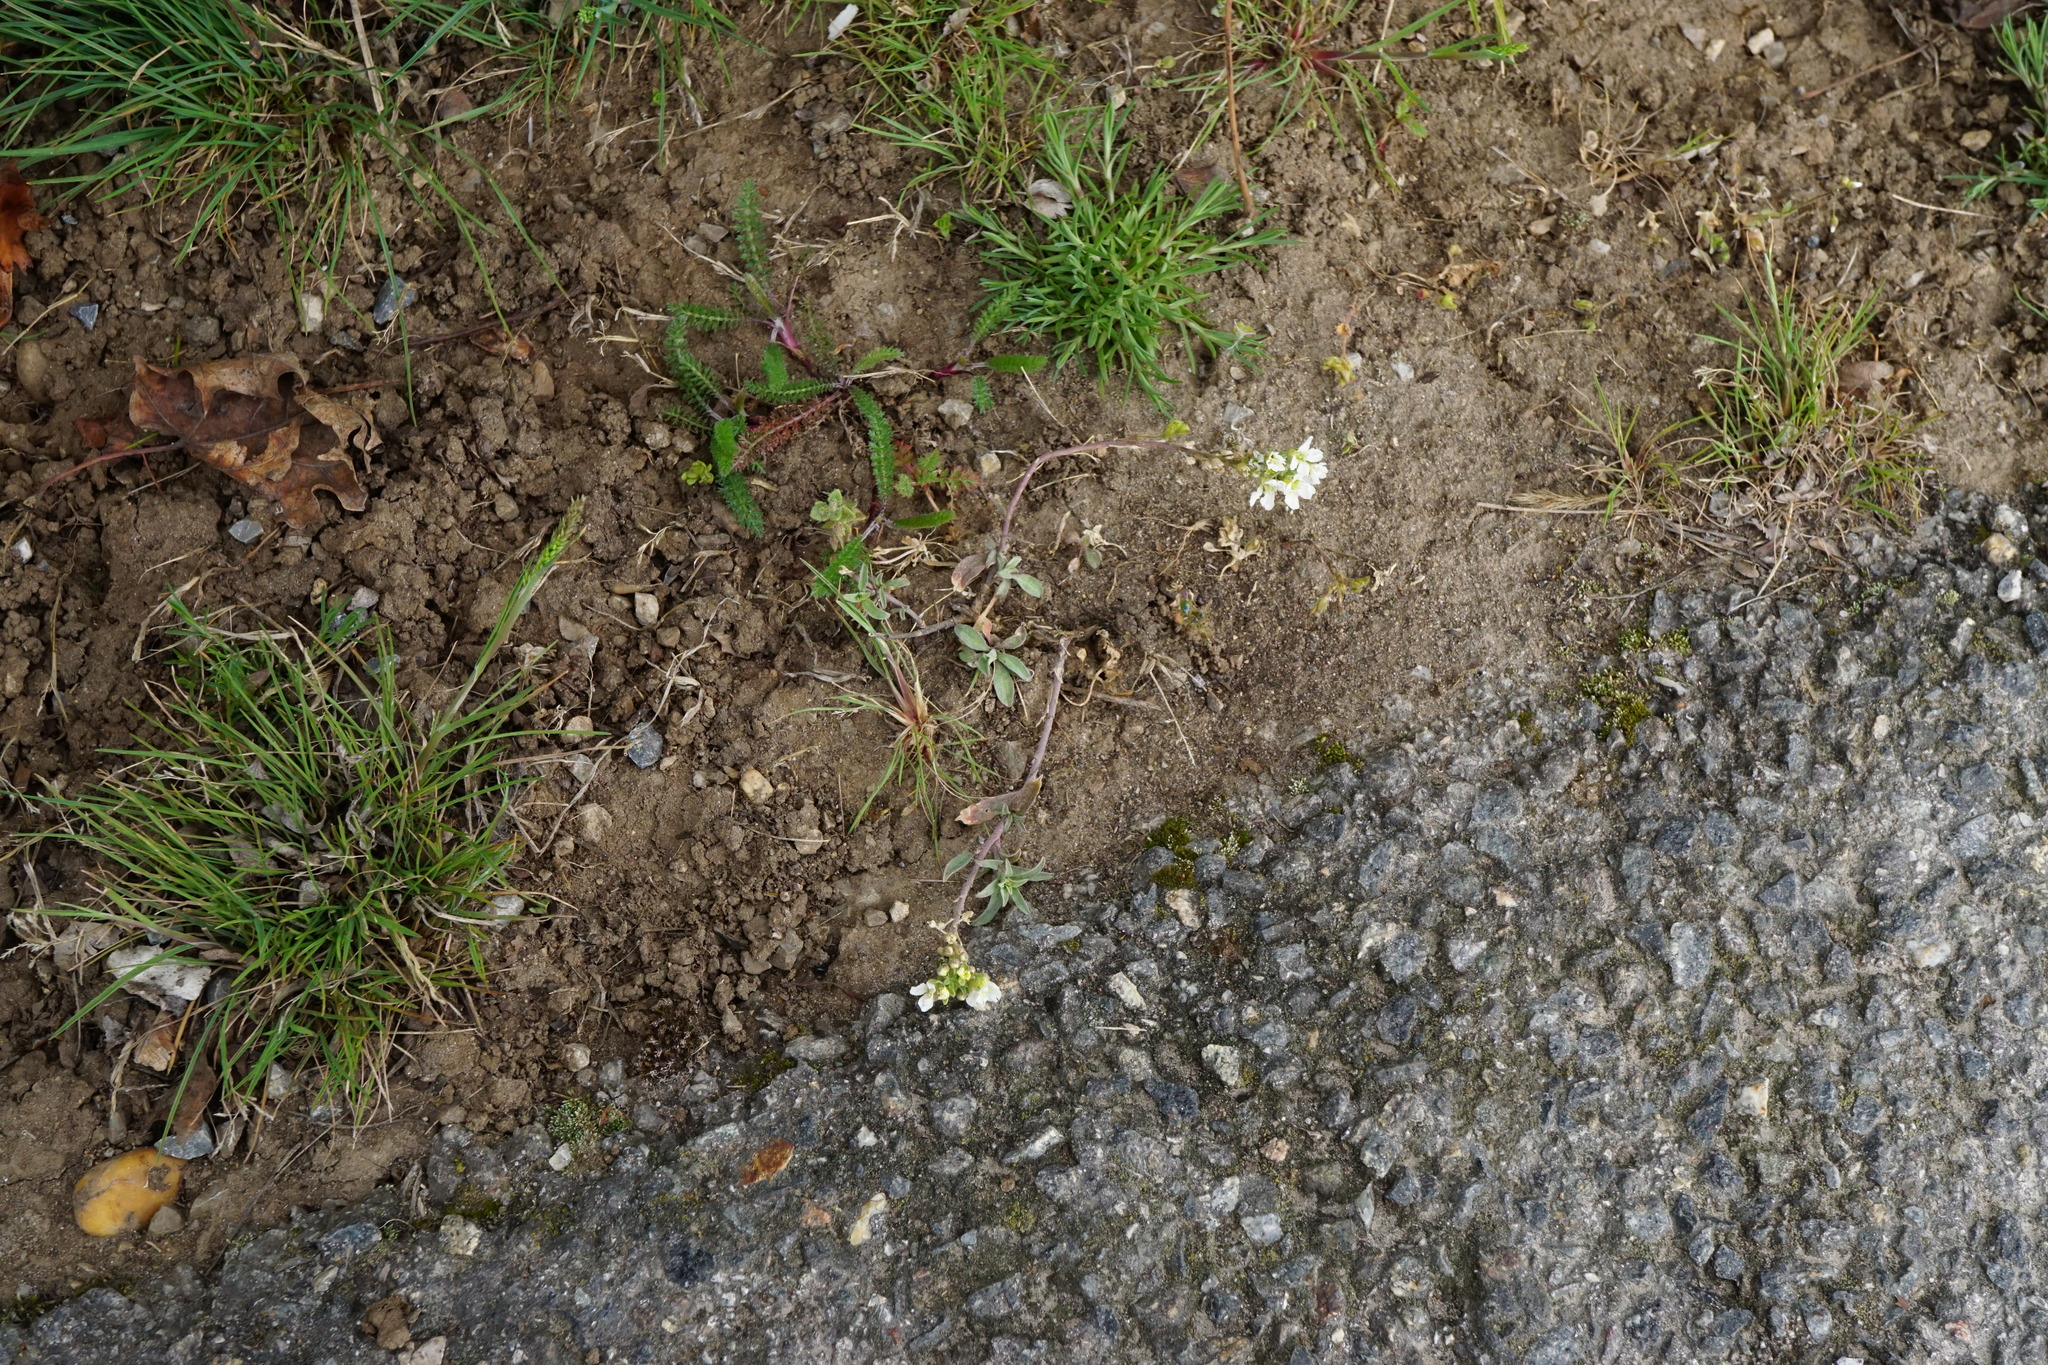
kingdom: Plantae
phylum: Tracheophyta
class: Magnoliopsida
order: Brassicales
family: Brassicaceae
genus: Berteroa
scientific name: Berteroa incana
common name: Hoary alison
